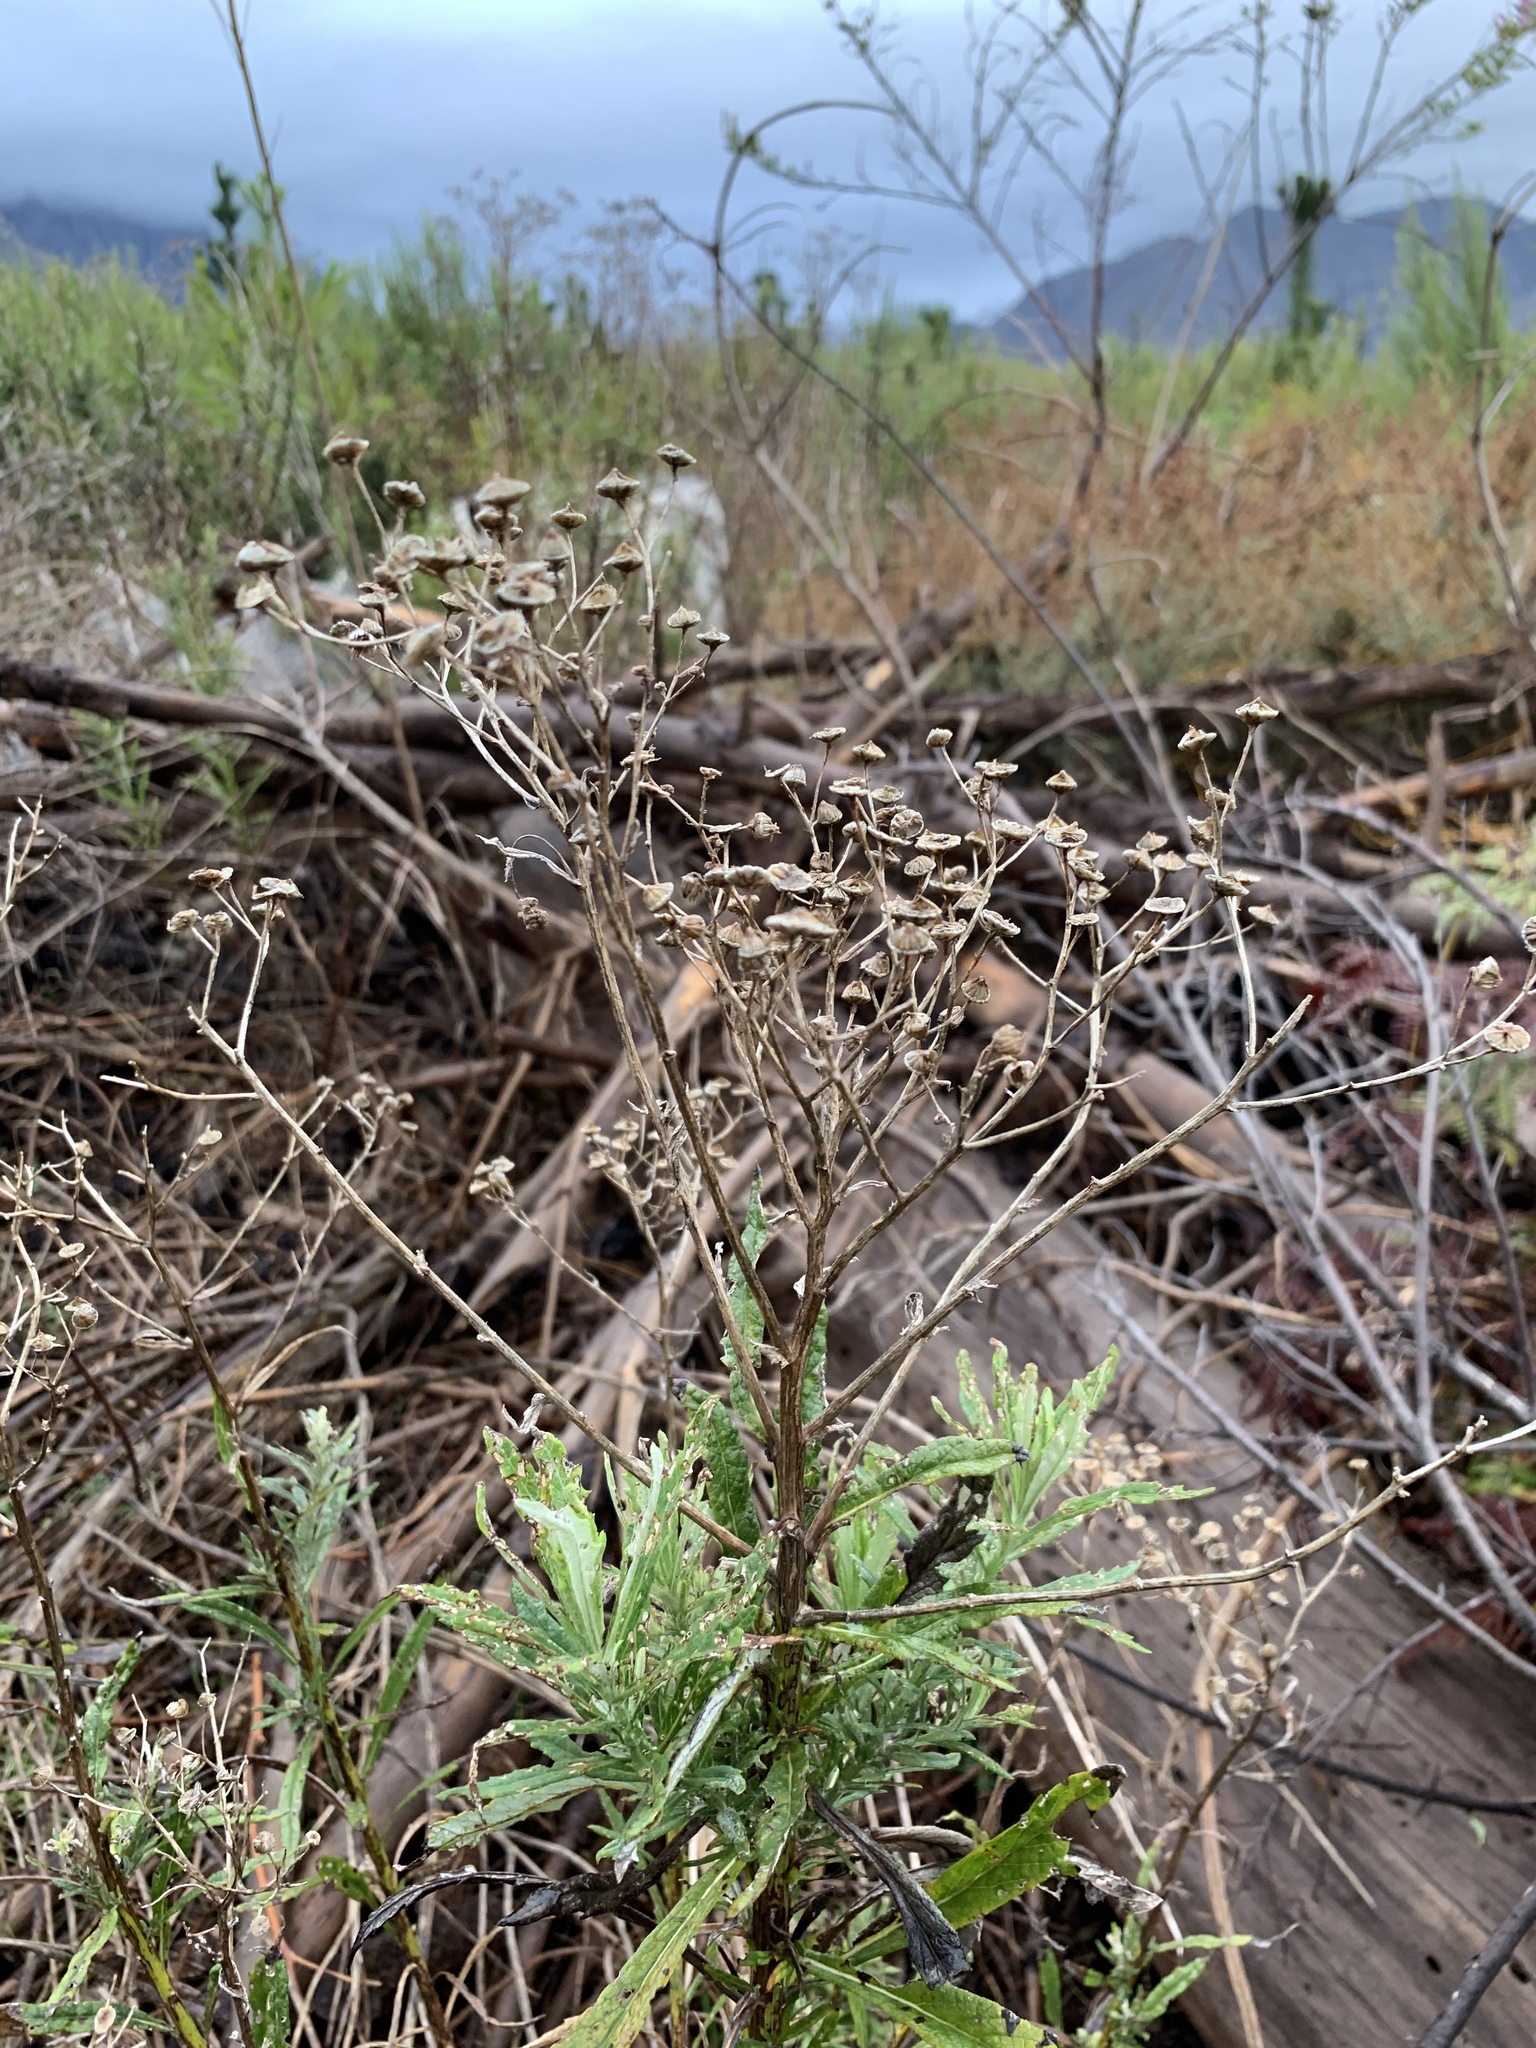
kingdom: Plantae
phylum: Tracheophyta
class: Magnoliopsida
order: Asterales
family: Asteraceae
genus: Senecio
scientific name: Senecio pterophorus
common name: Shoddy ragwort
